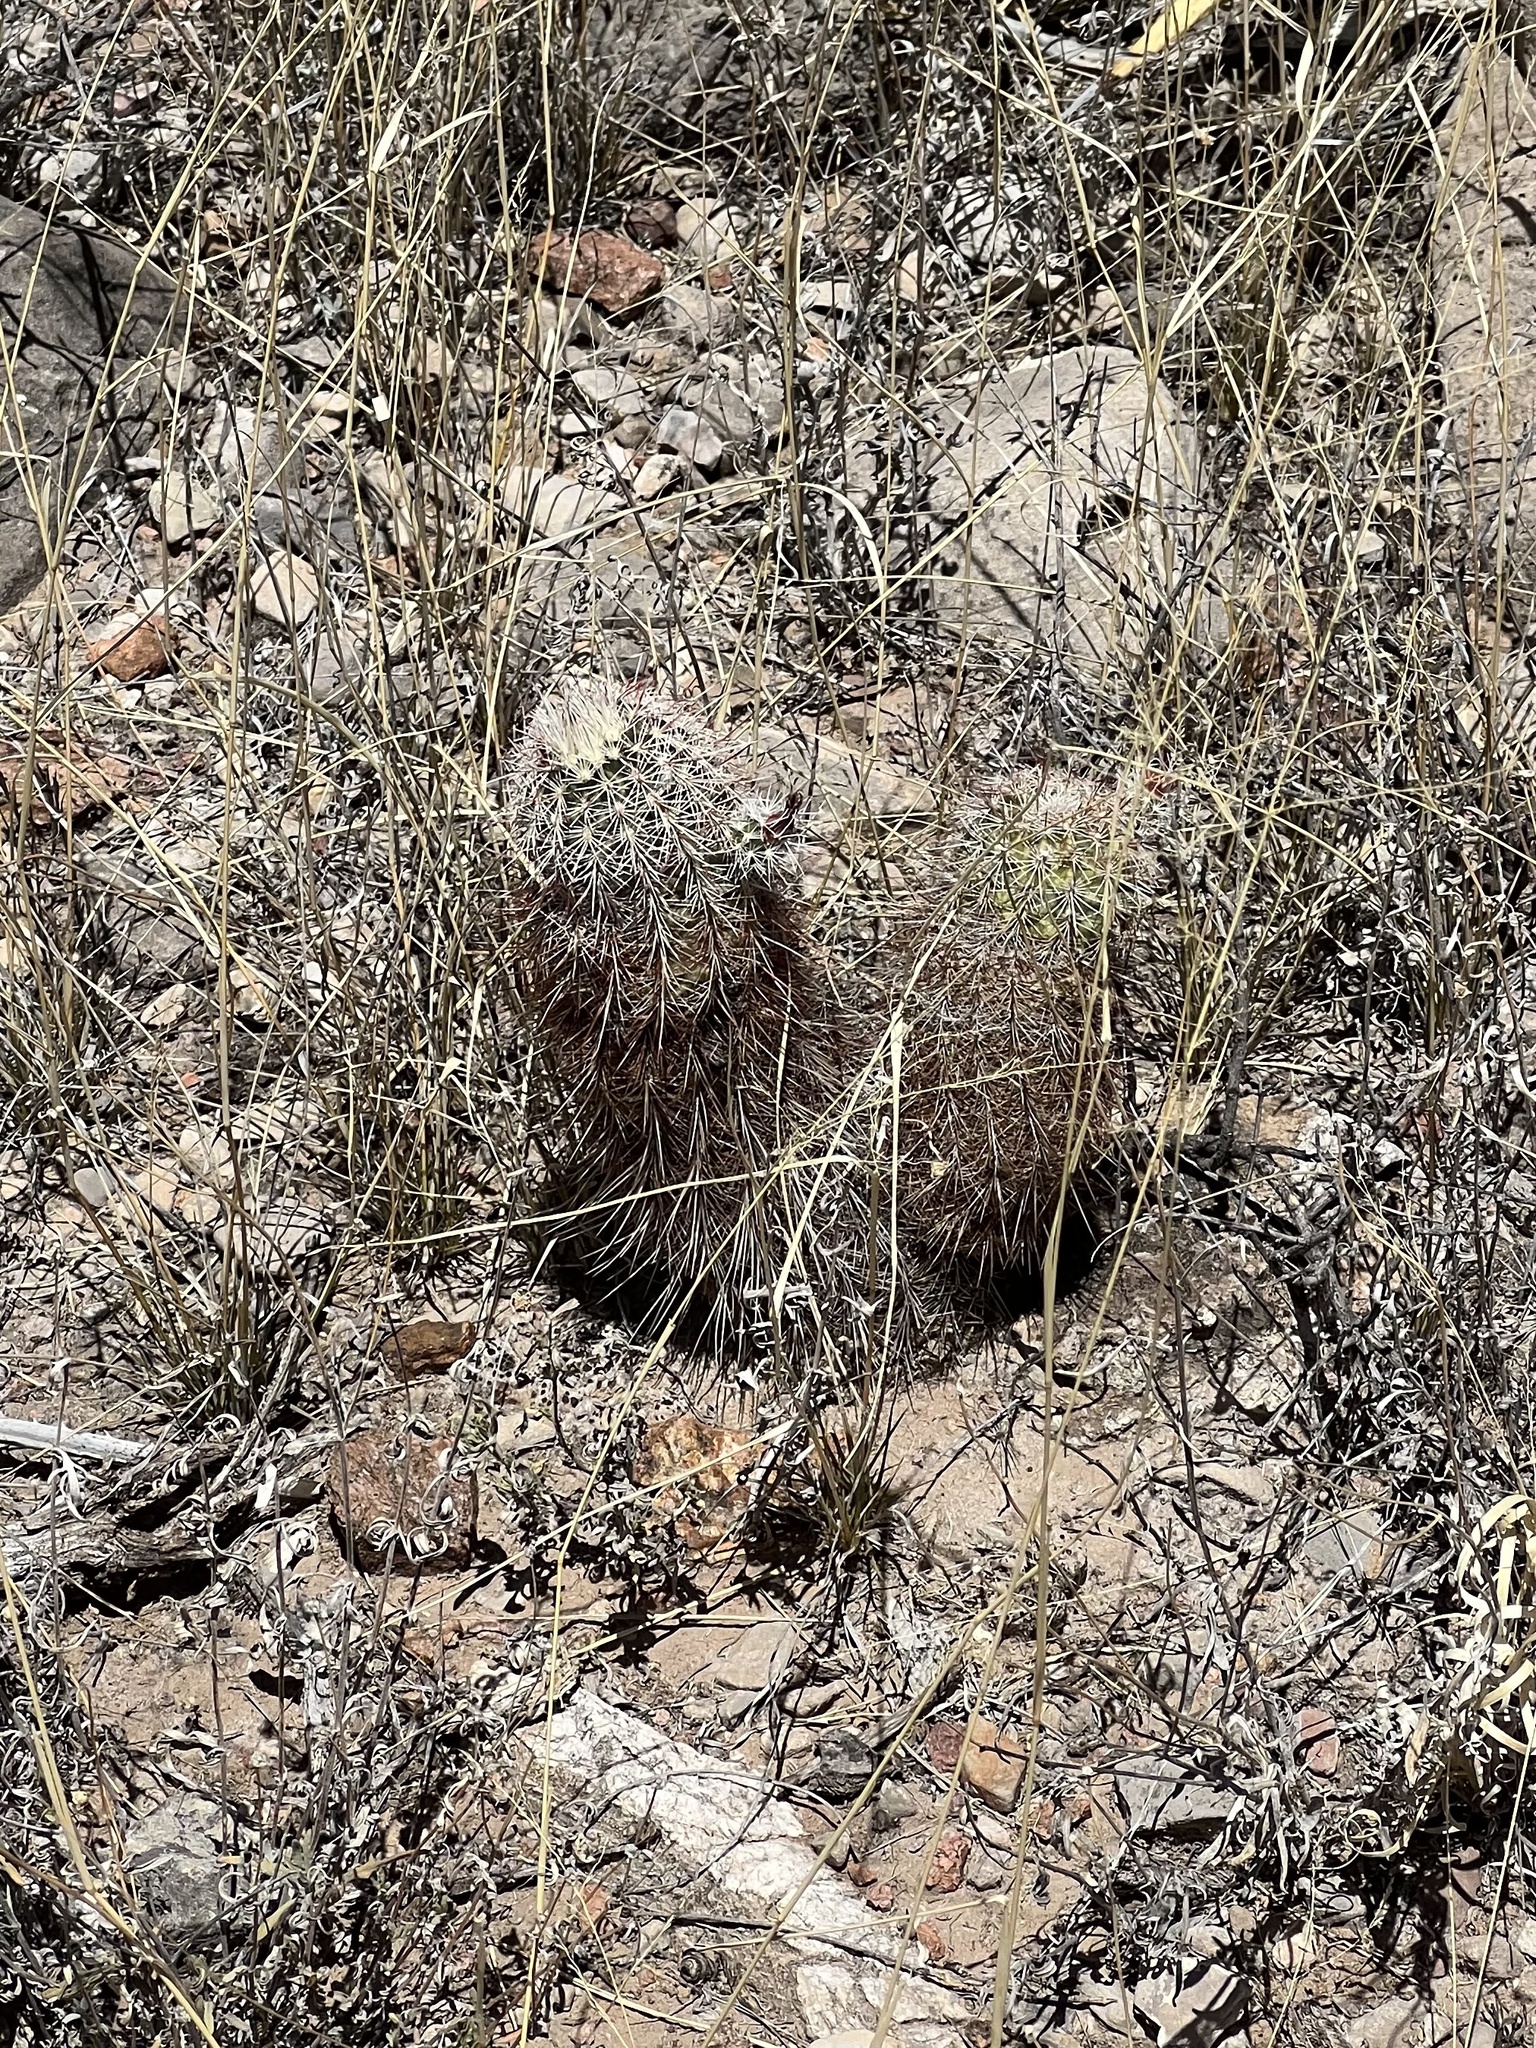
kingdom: Plantae
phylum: Tracheophyta
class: Magnoliopsida
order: Caryophyllales
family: Cactaceae
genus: Echinocereus
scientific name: Echinocereus viridiflorus
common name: Nylon hedgehog cactus
